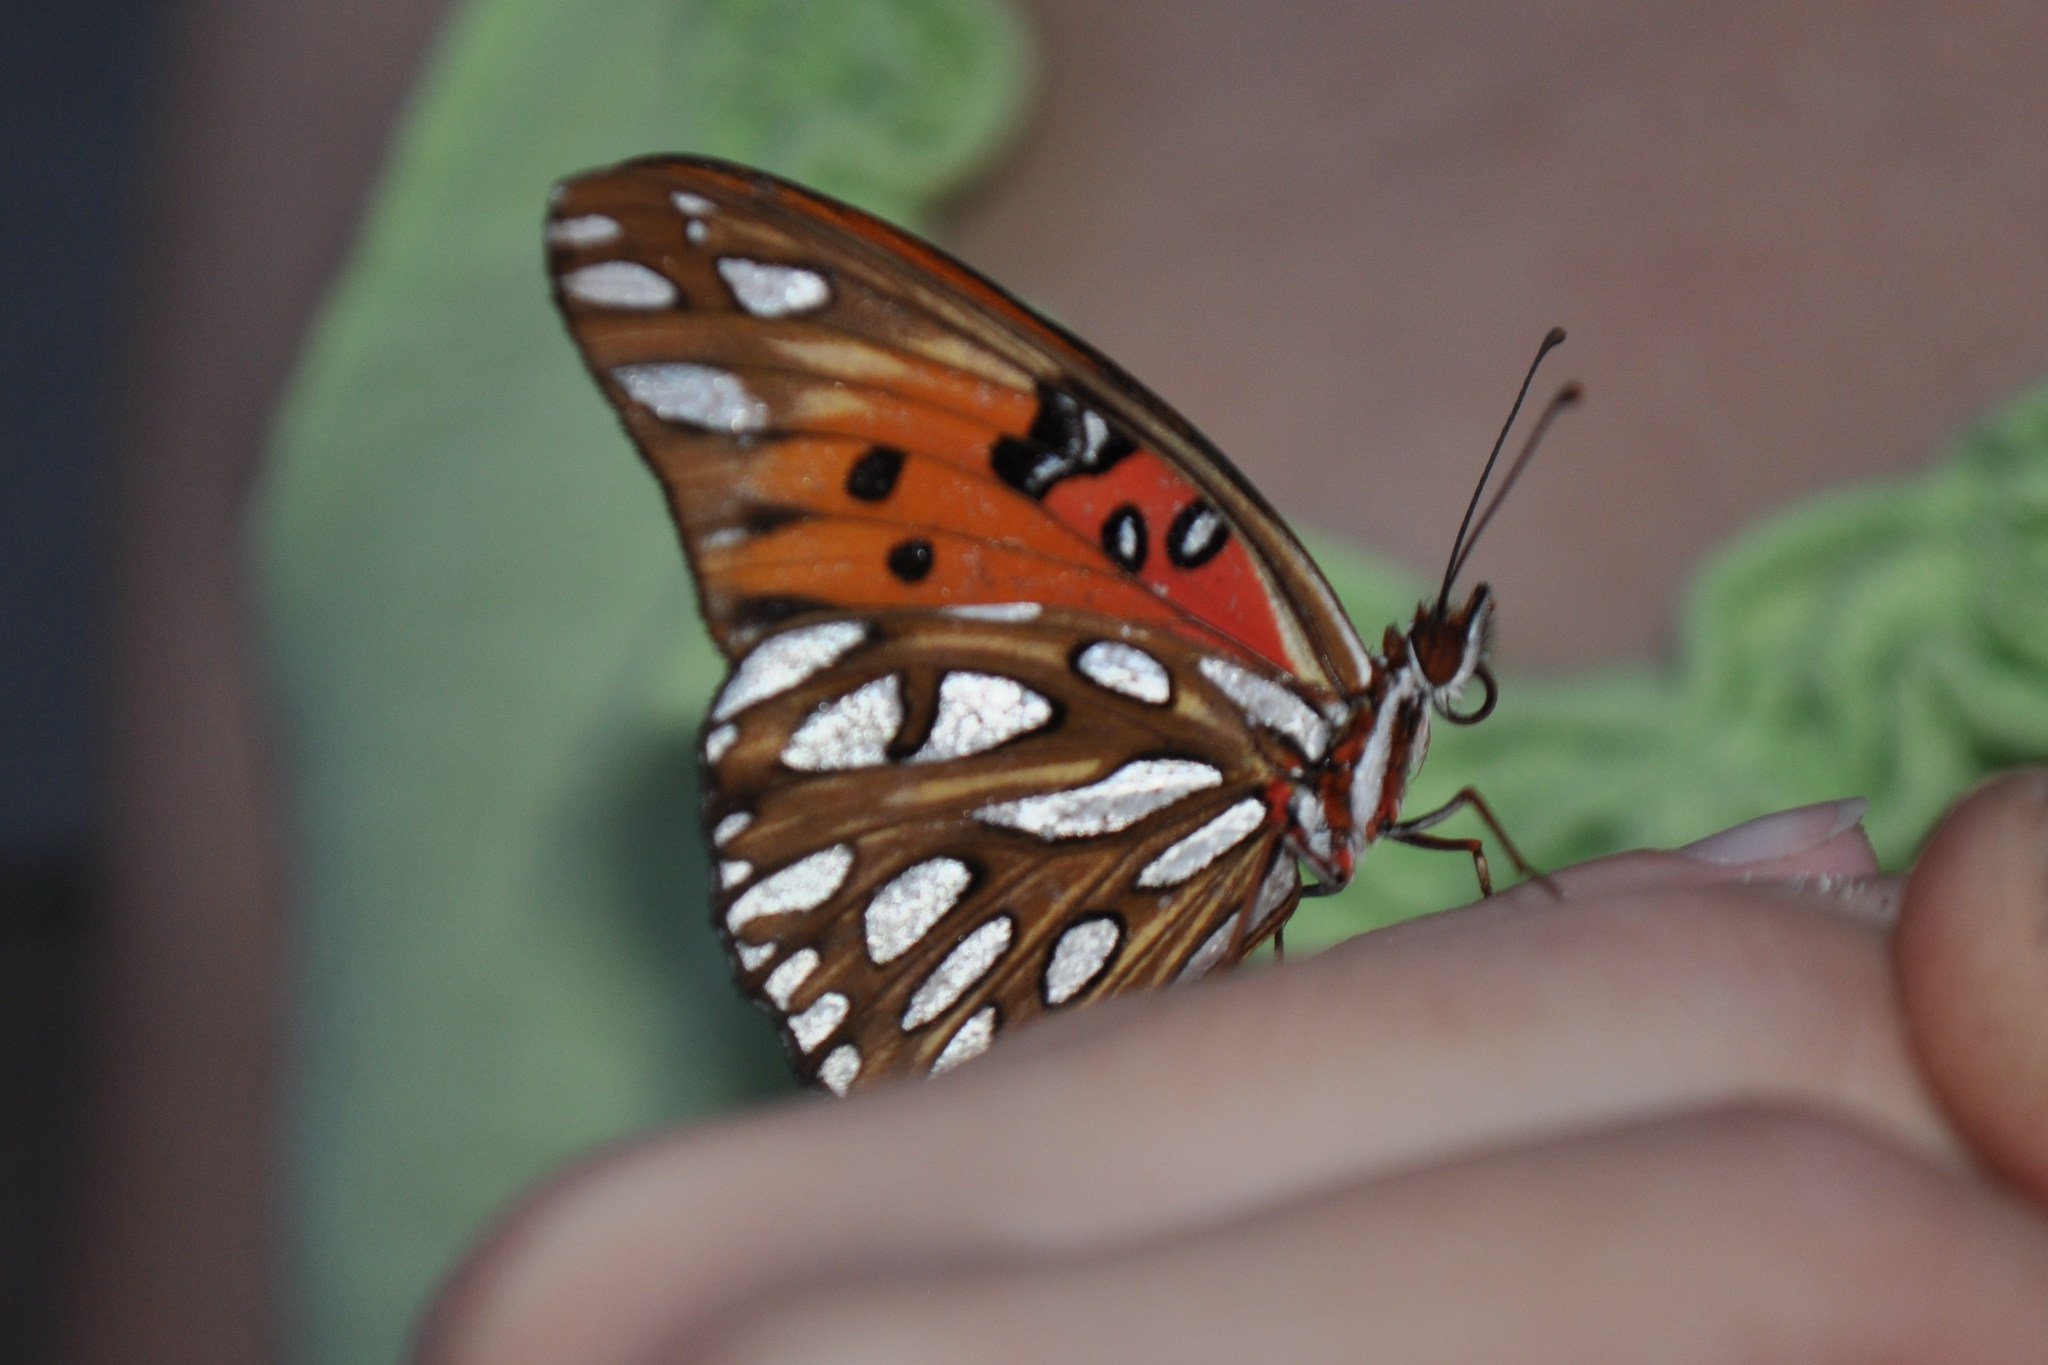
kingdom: Animalia
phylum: Arthropoda
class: Insecta
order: Lepidoptera
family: Nymphalidae
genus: Dione
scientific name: Dione vanillae
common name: Gulf fritillary
